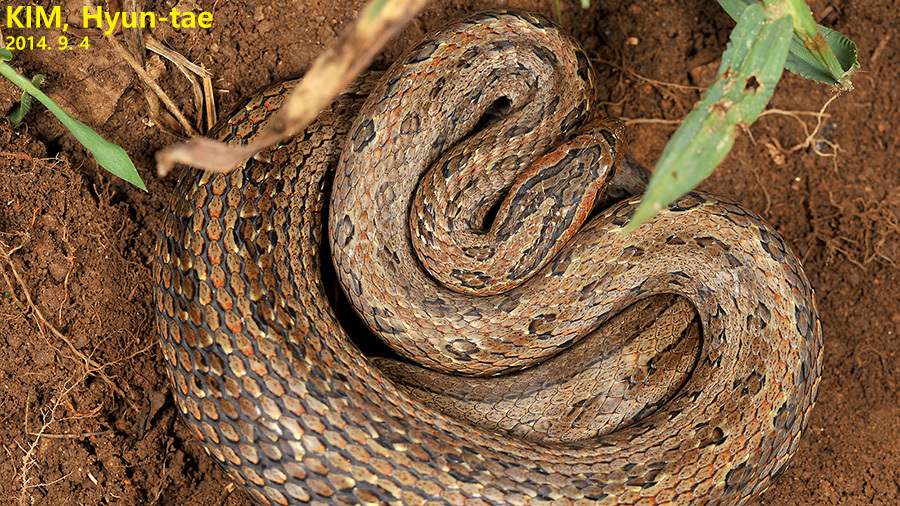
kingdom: Animalia
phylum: Chordata
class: Squamata
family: Colubridae
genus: Oocatochus
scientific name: Oocatochus rufodorsatus
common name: Frog-eating rat snake
